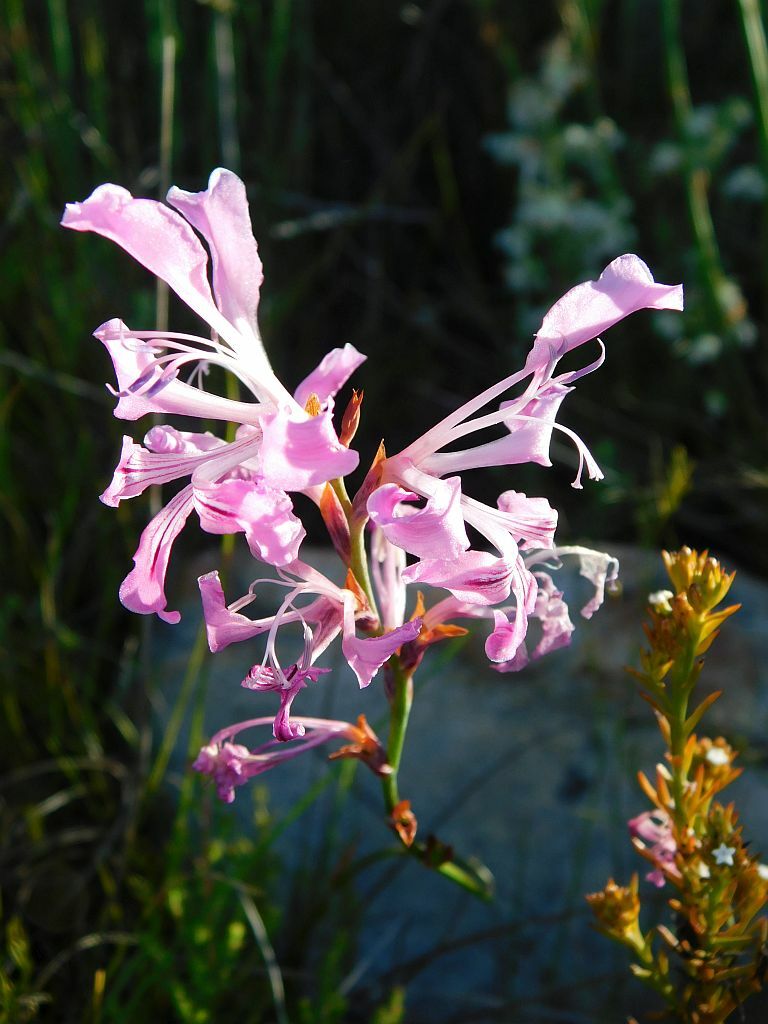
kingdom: Plantae
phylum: Tracheophyta
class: Liliopsida
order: Asparagales
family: Iridaceae
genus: Tritoniopsis
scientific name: Tritoniopsis lata
